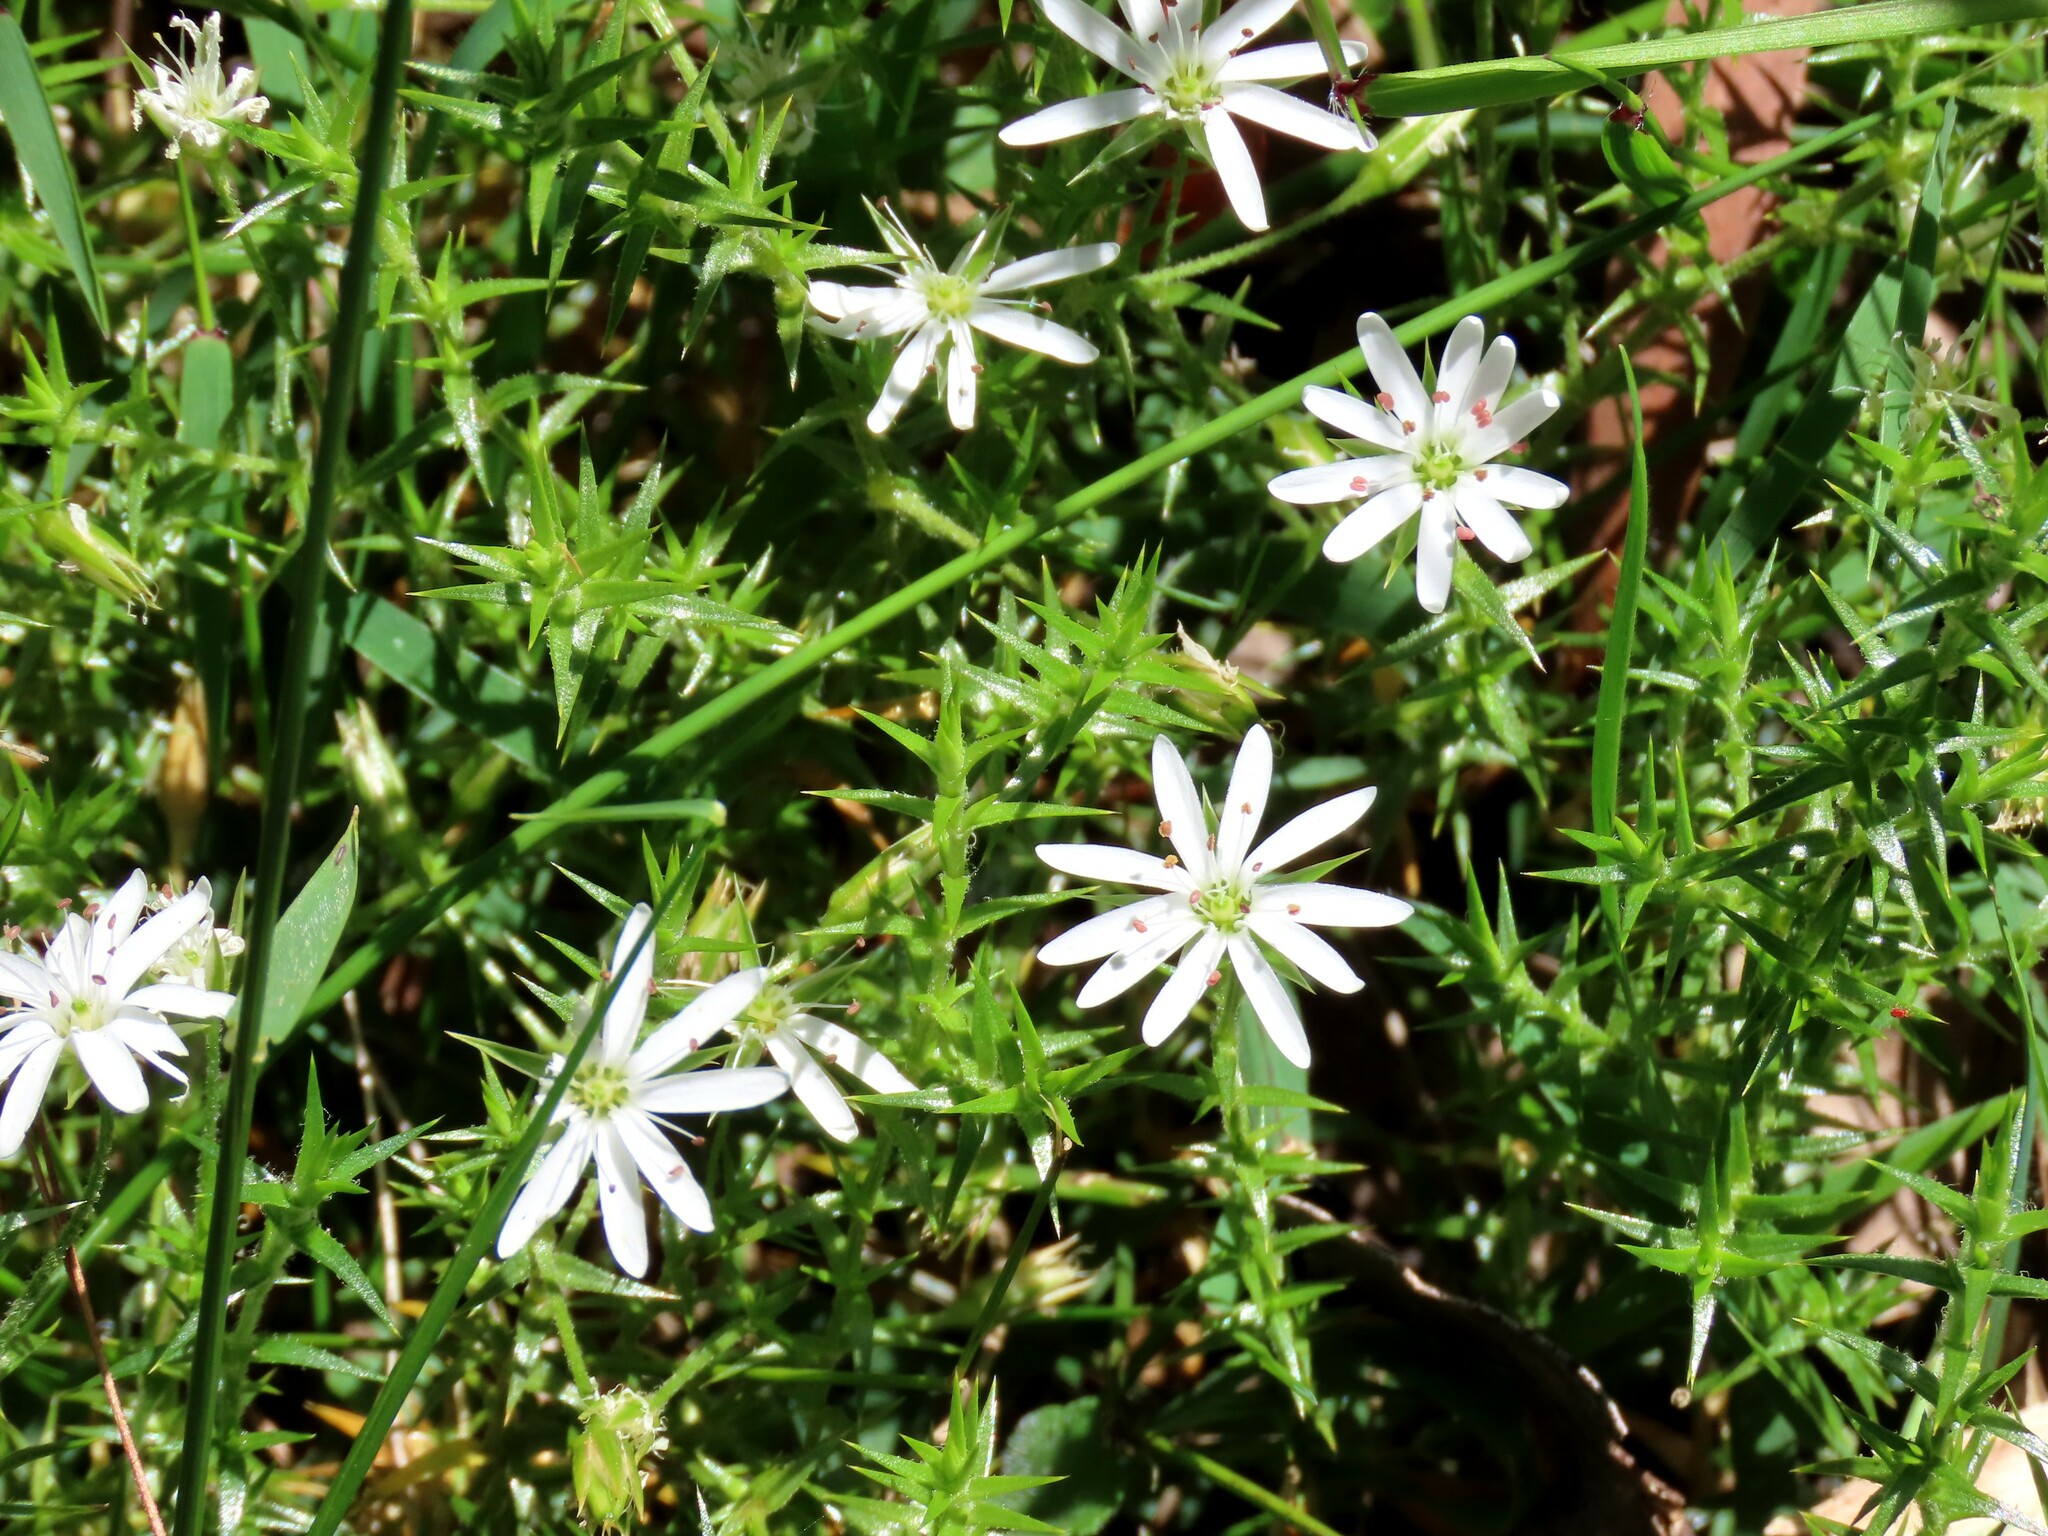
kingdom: Plantae
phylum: Tracheophyta
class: Magnoliopsida
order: Caryophyllales
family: Caryophyllaceae
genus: Stellaria
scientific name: Stellaria pungens
